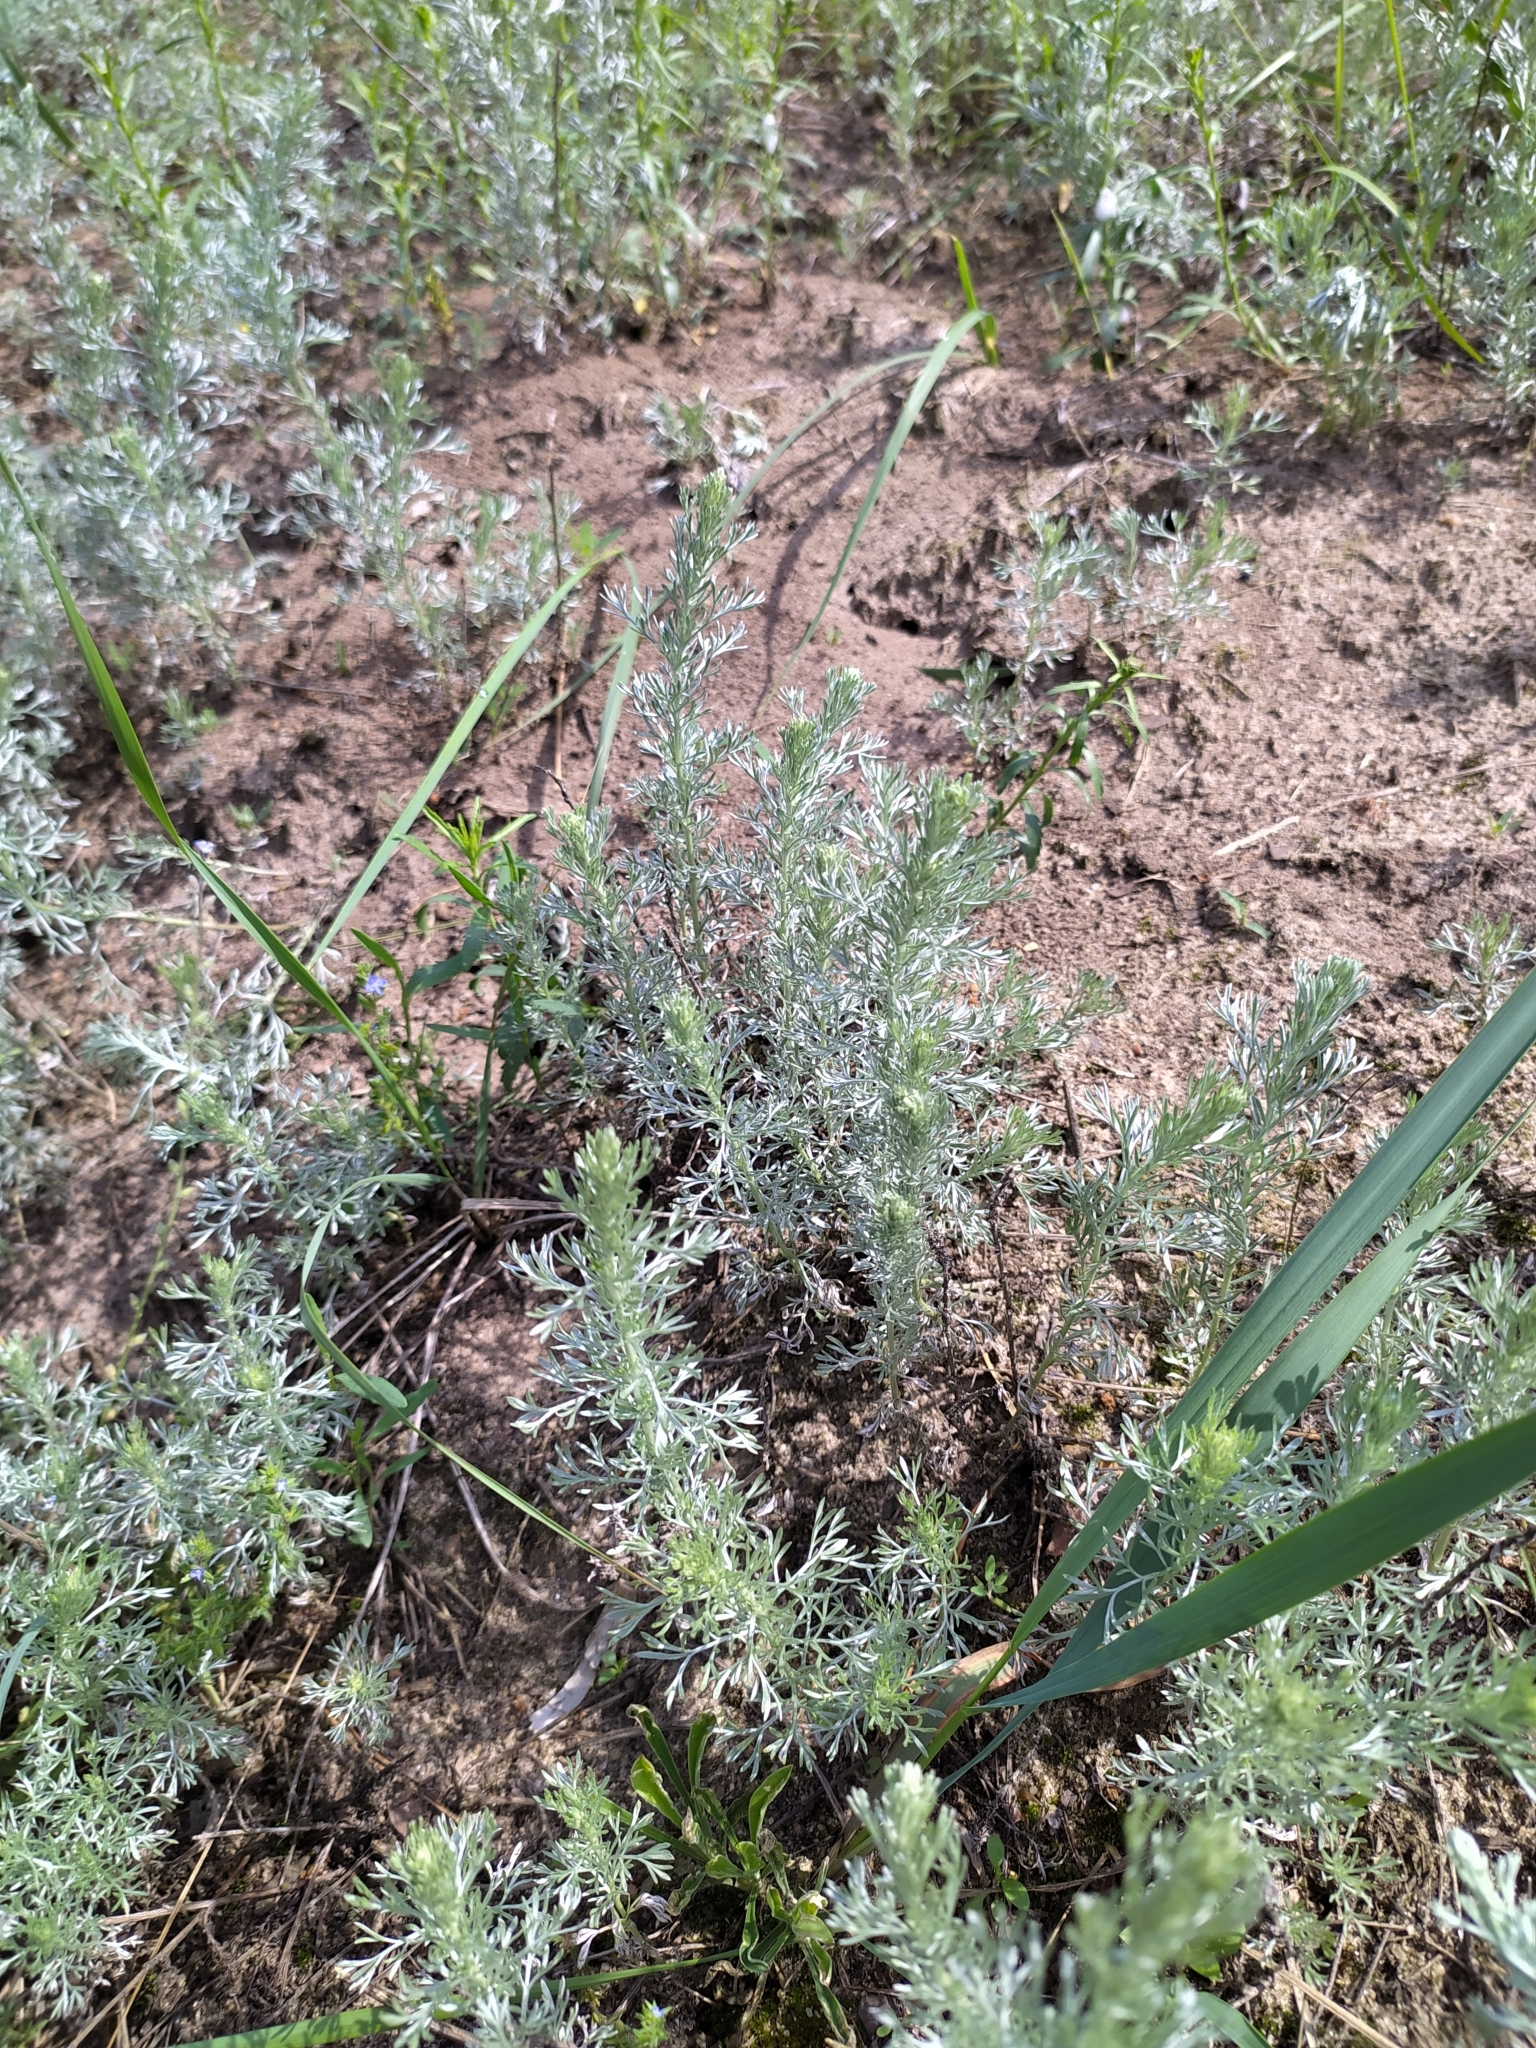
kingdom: Plantae
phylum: Tracheophyta
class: Magnoliopsida
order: Asterales
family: Asteraceae
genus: Artemisia
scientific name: Artemisia austriaca
